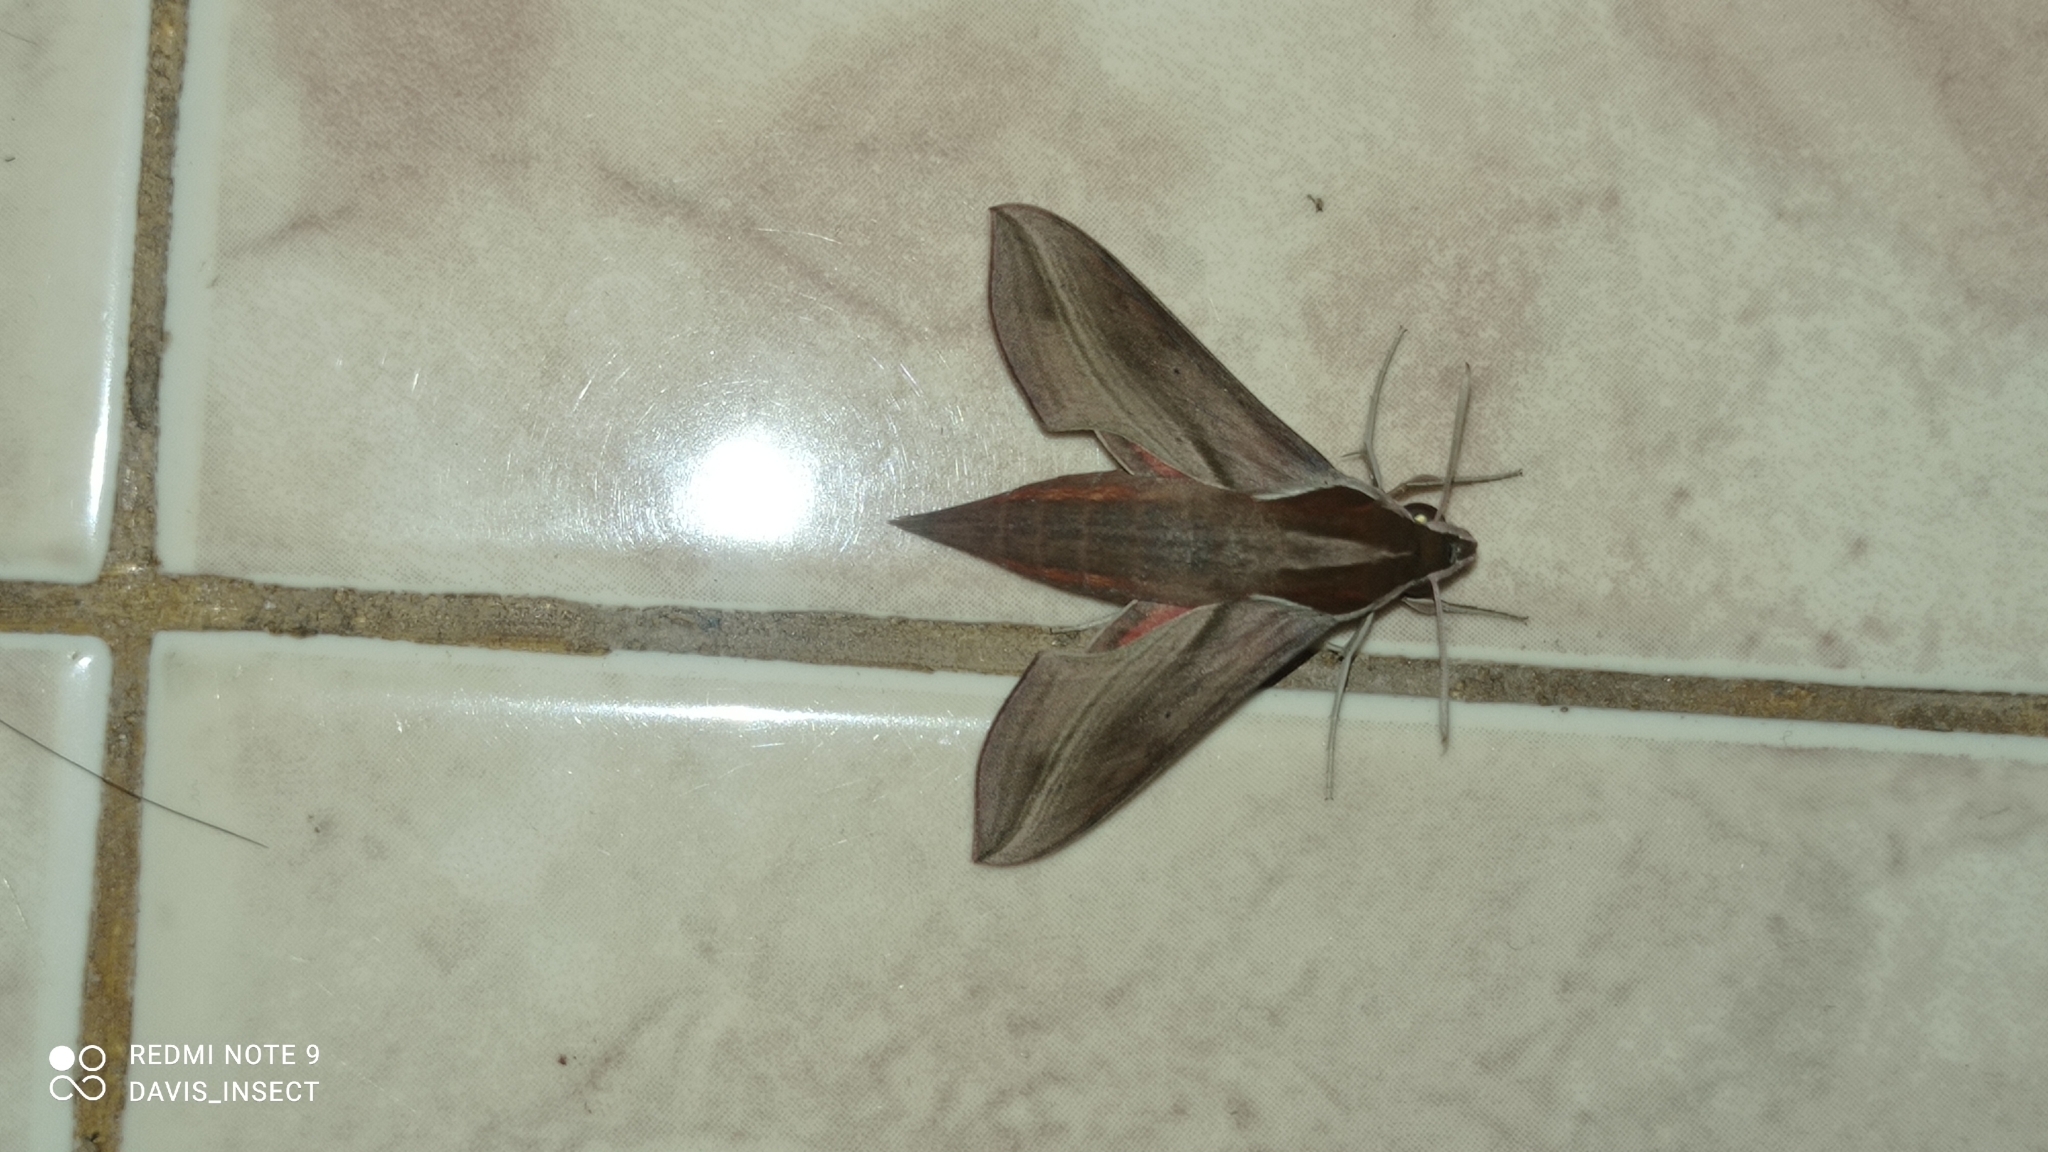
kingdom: Animalia
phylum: Arthropoda
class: Insecta
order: Lepidoptera
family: Sphingidae
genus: Hippotion
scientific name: Hippotion rosetta
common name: Vine hawk moth
